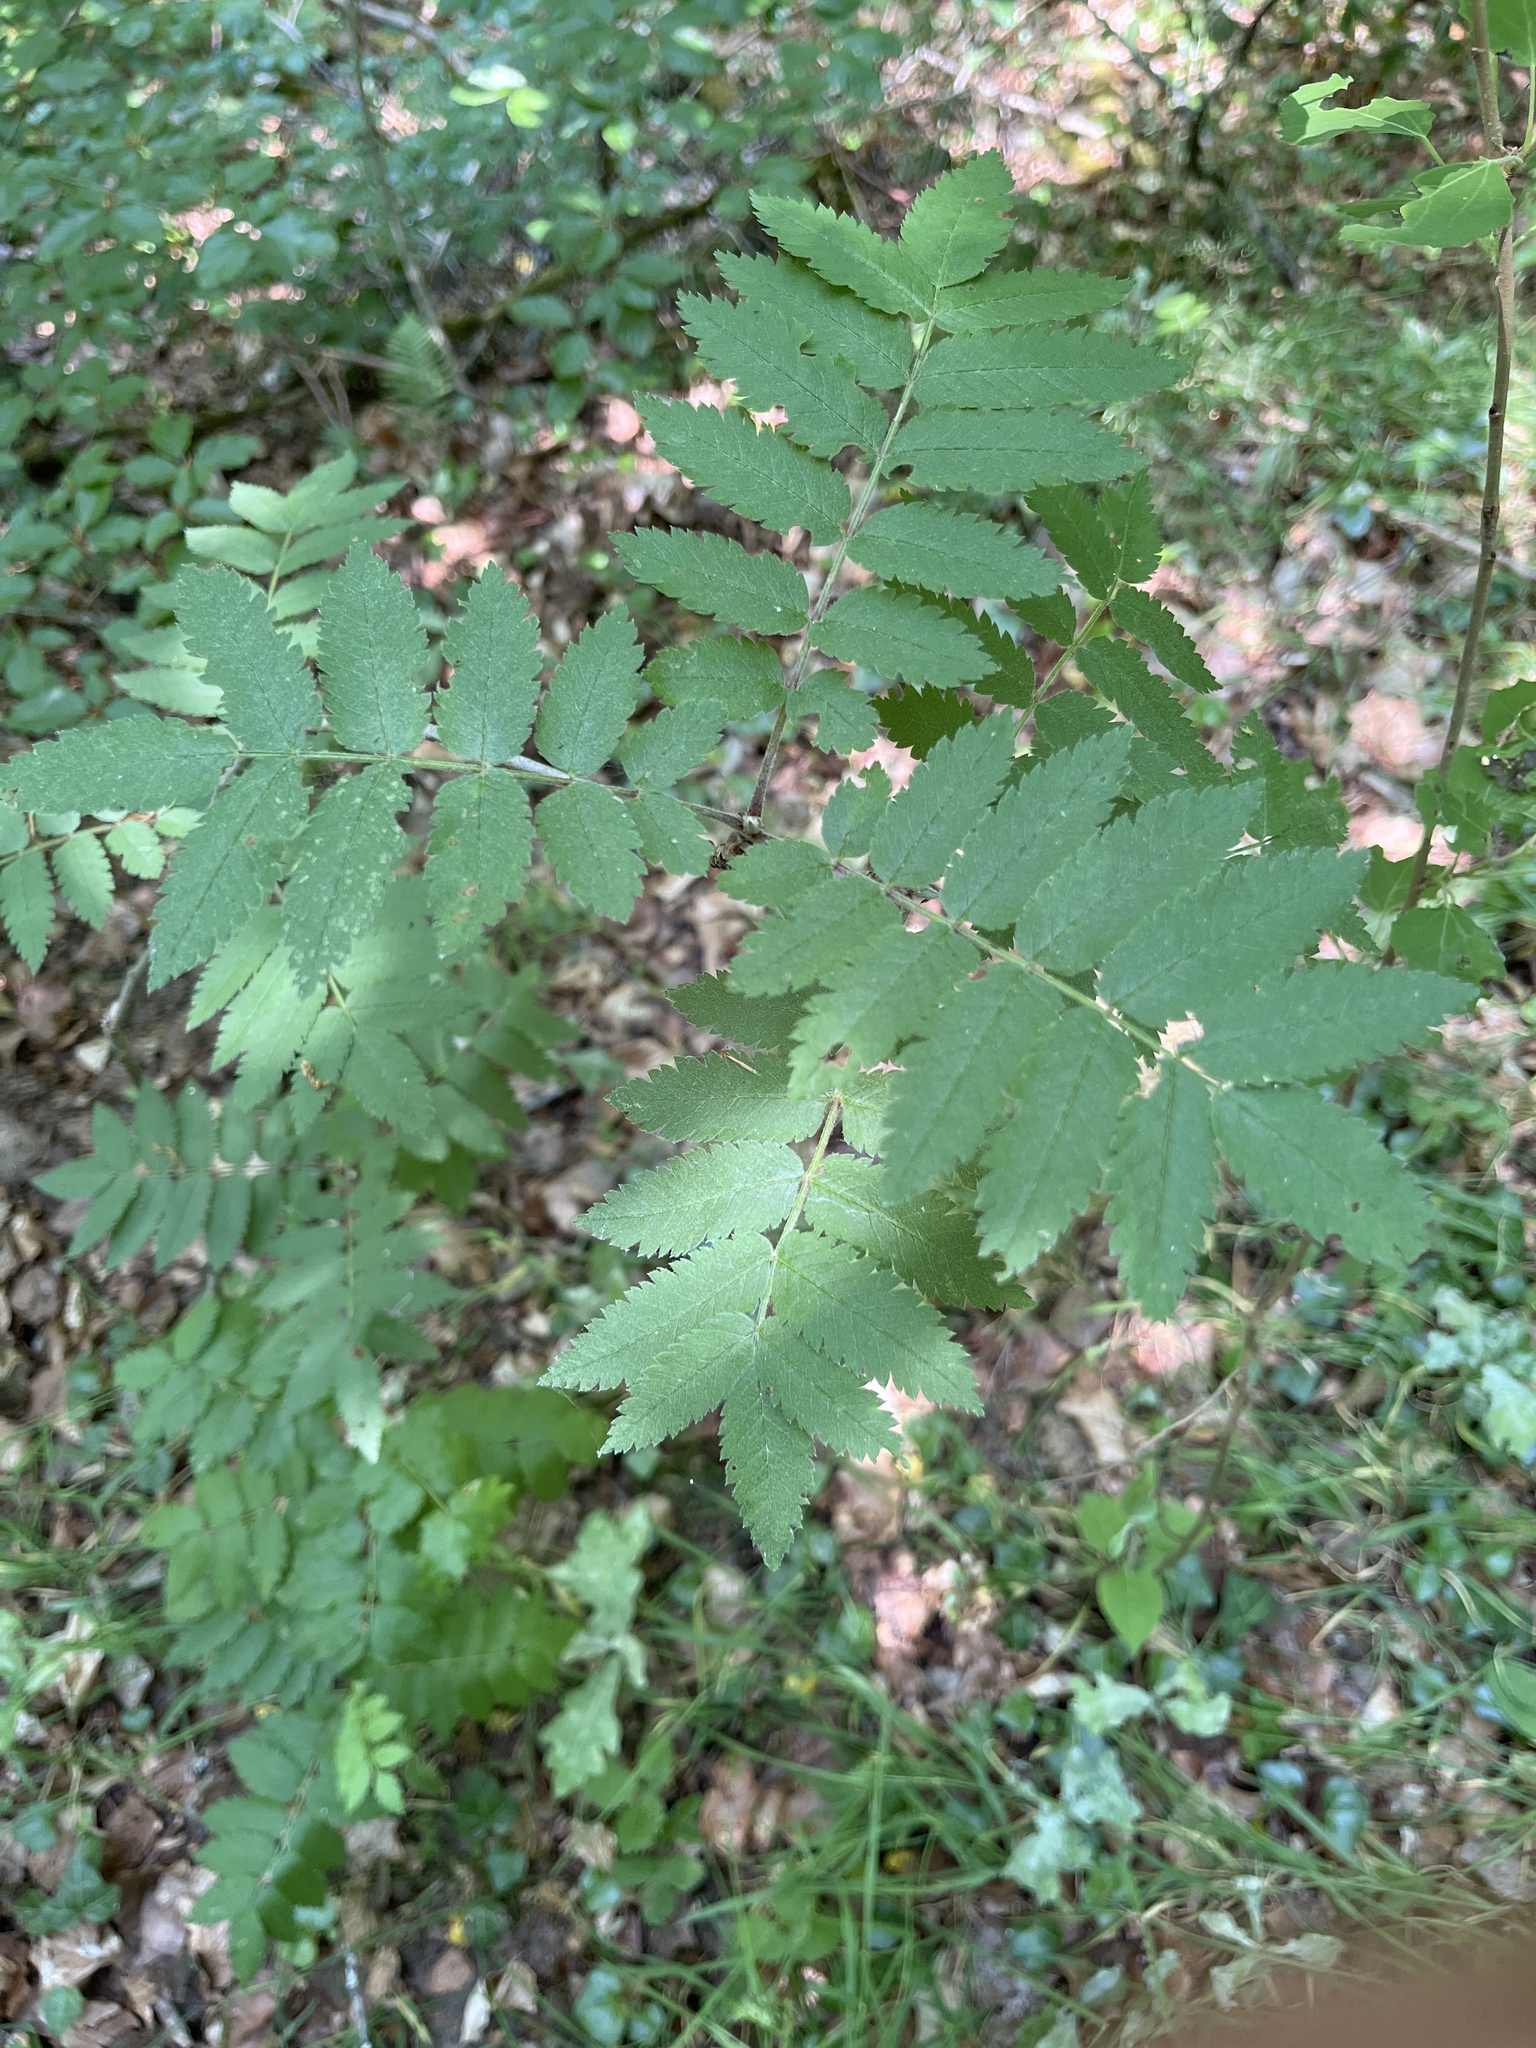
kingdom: Plantae
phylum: Tracheophyta
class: Magnoliopsida
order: Rosales
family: Rosaceae
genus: Sorbus
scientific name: Sorbus aucuparia
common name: Rowan
